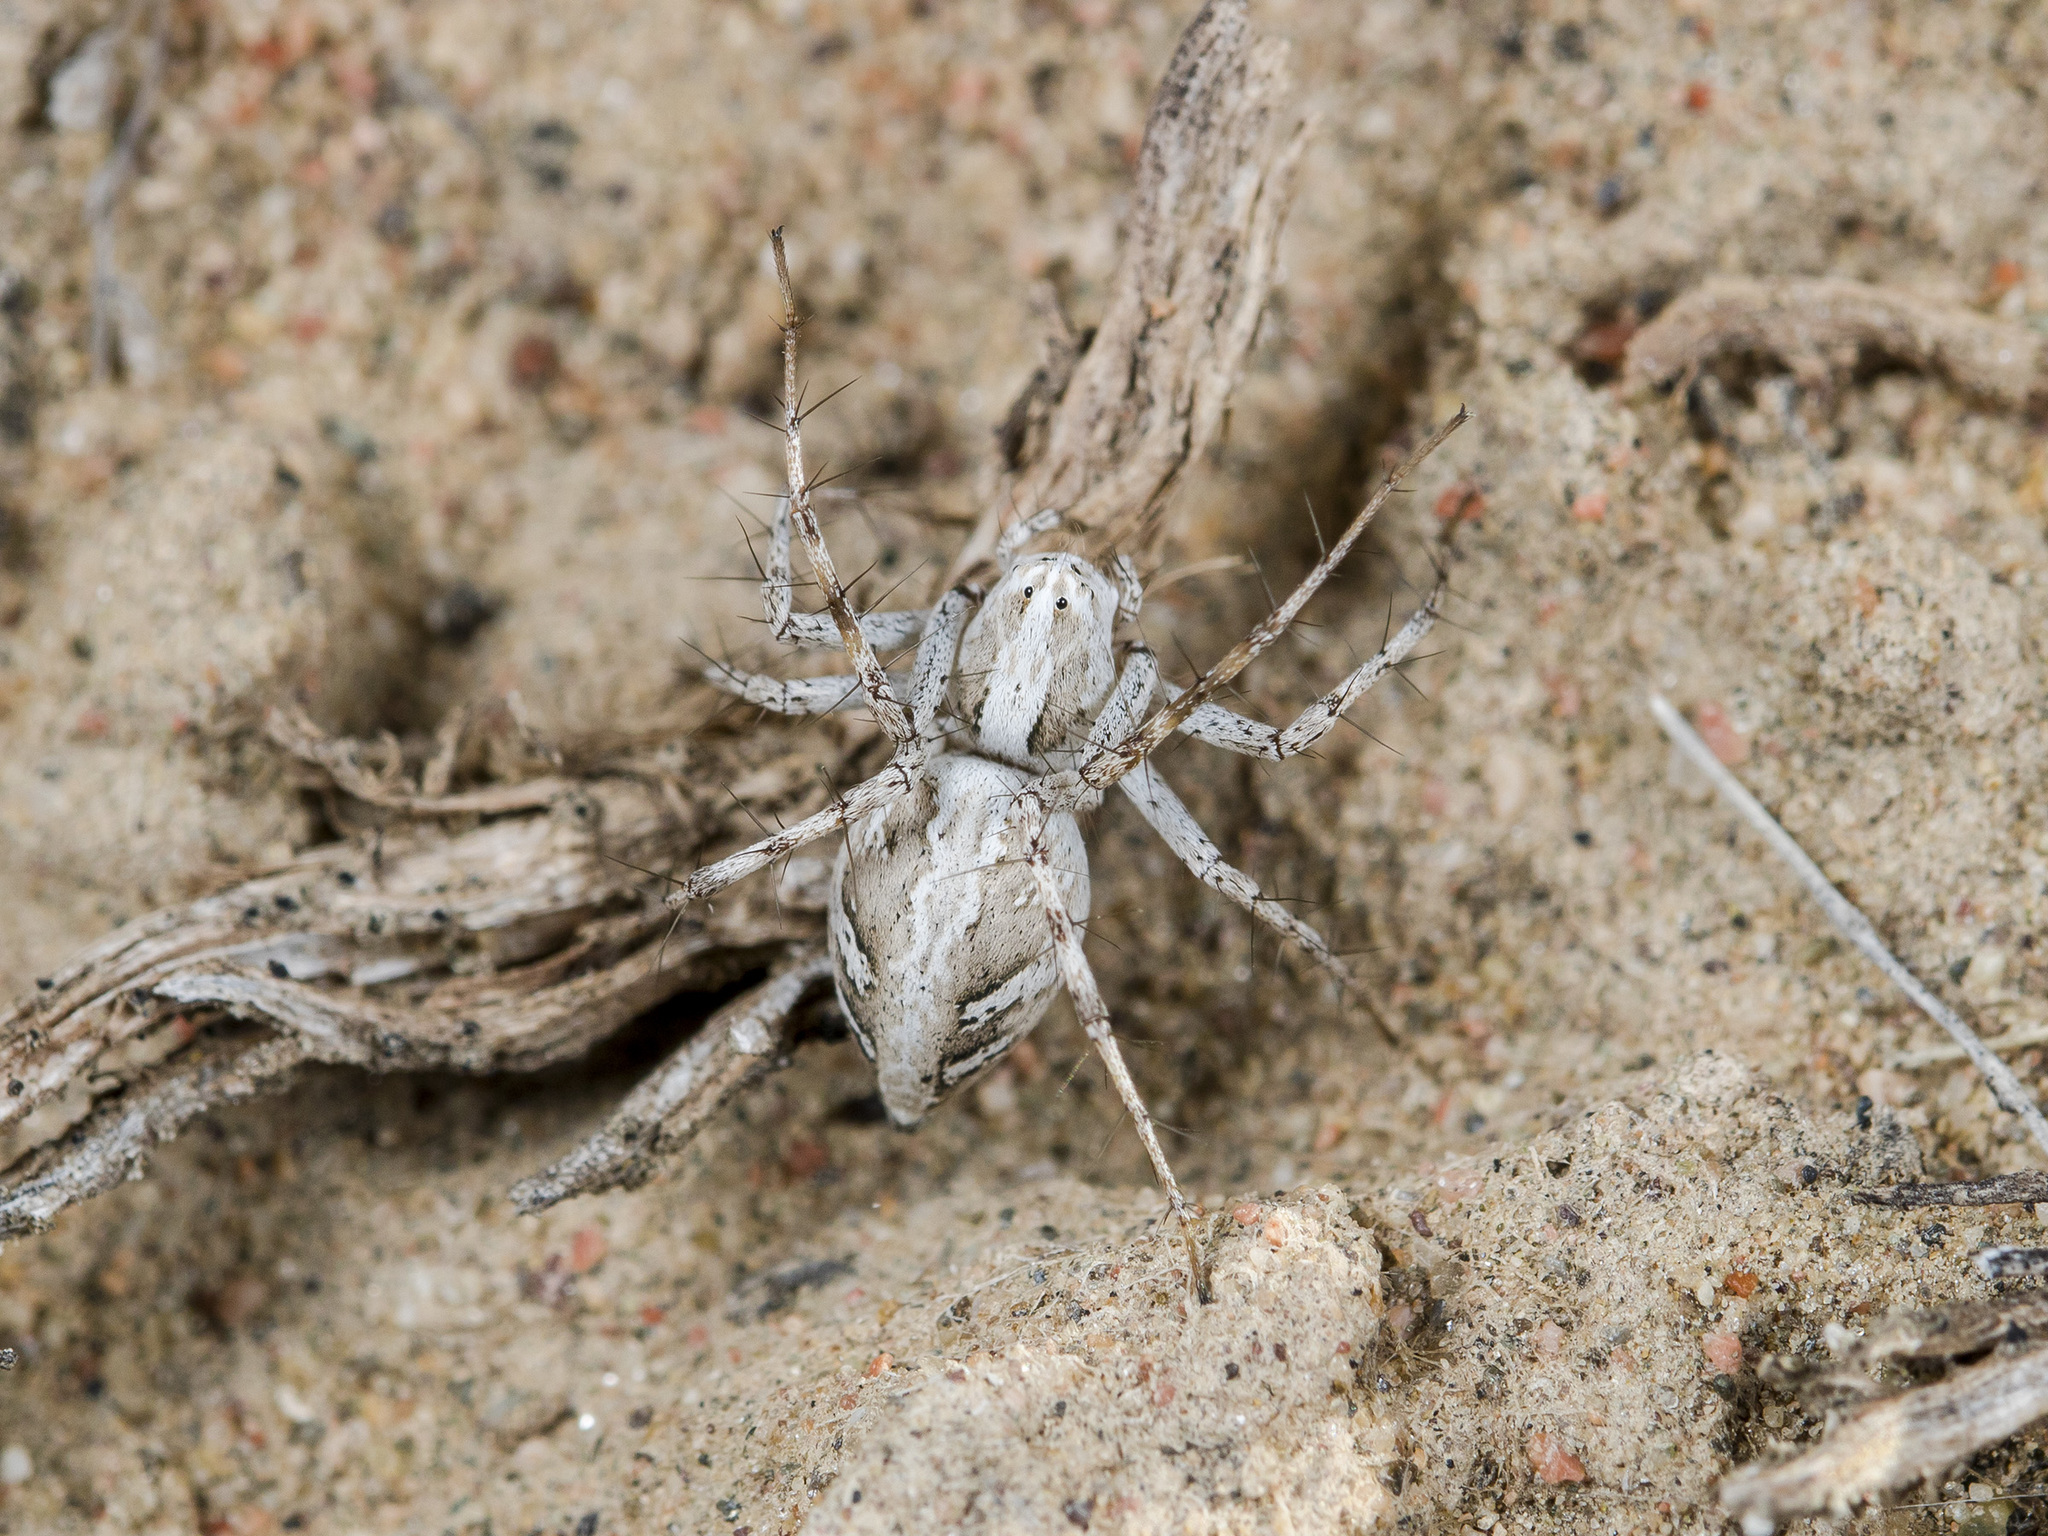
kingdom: Animalia
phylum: Arthropoda
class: Arachnida
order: Araneae
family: Oxyopidae
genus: Oxyopes
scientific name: Oxyopes globifer
